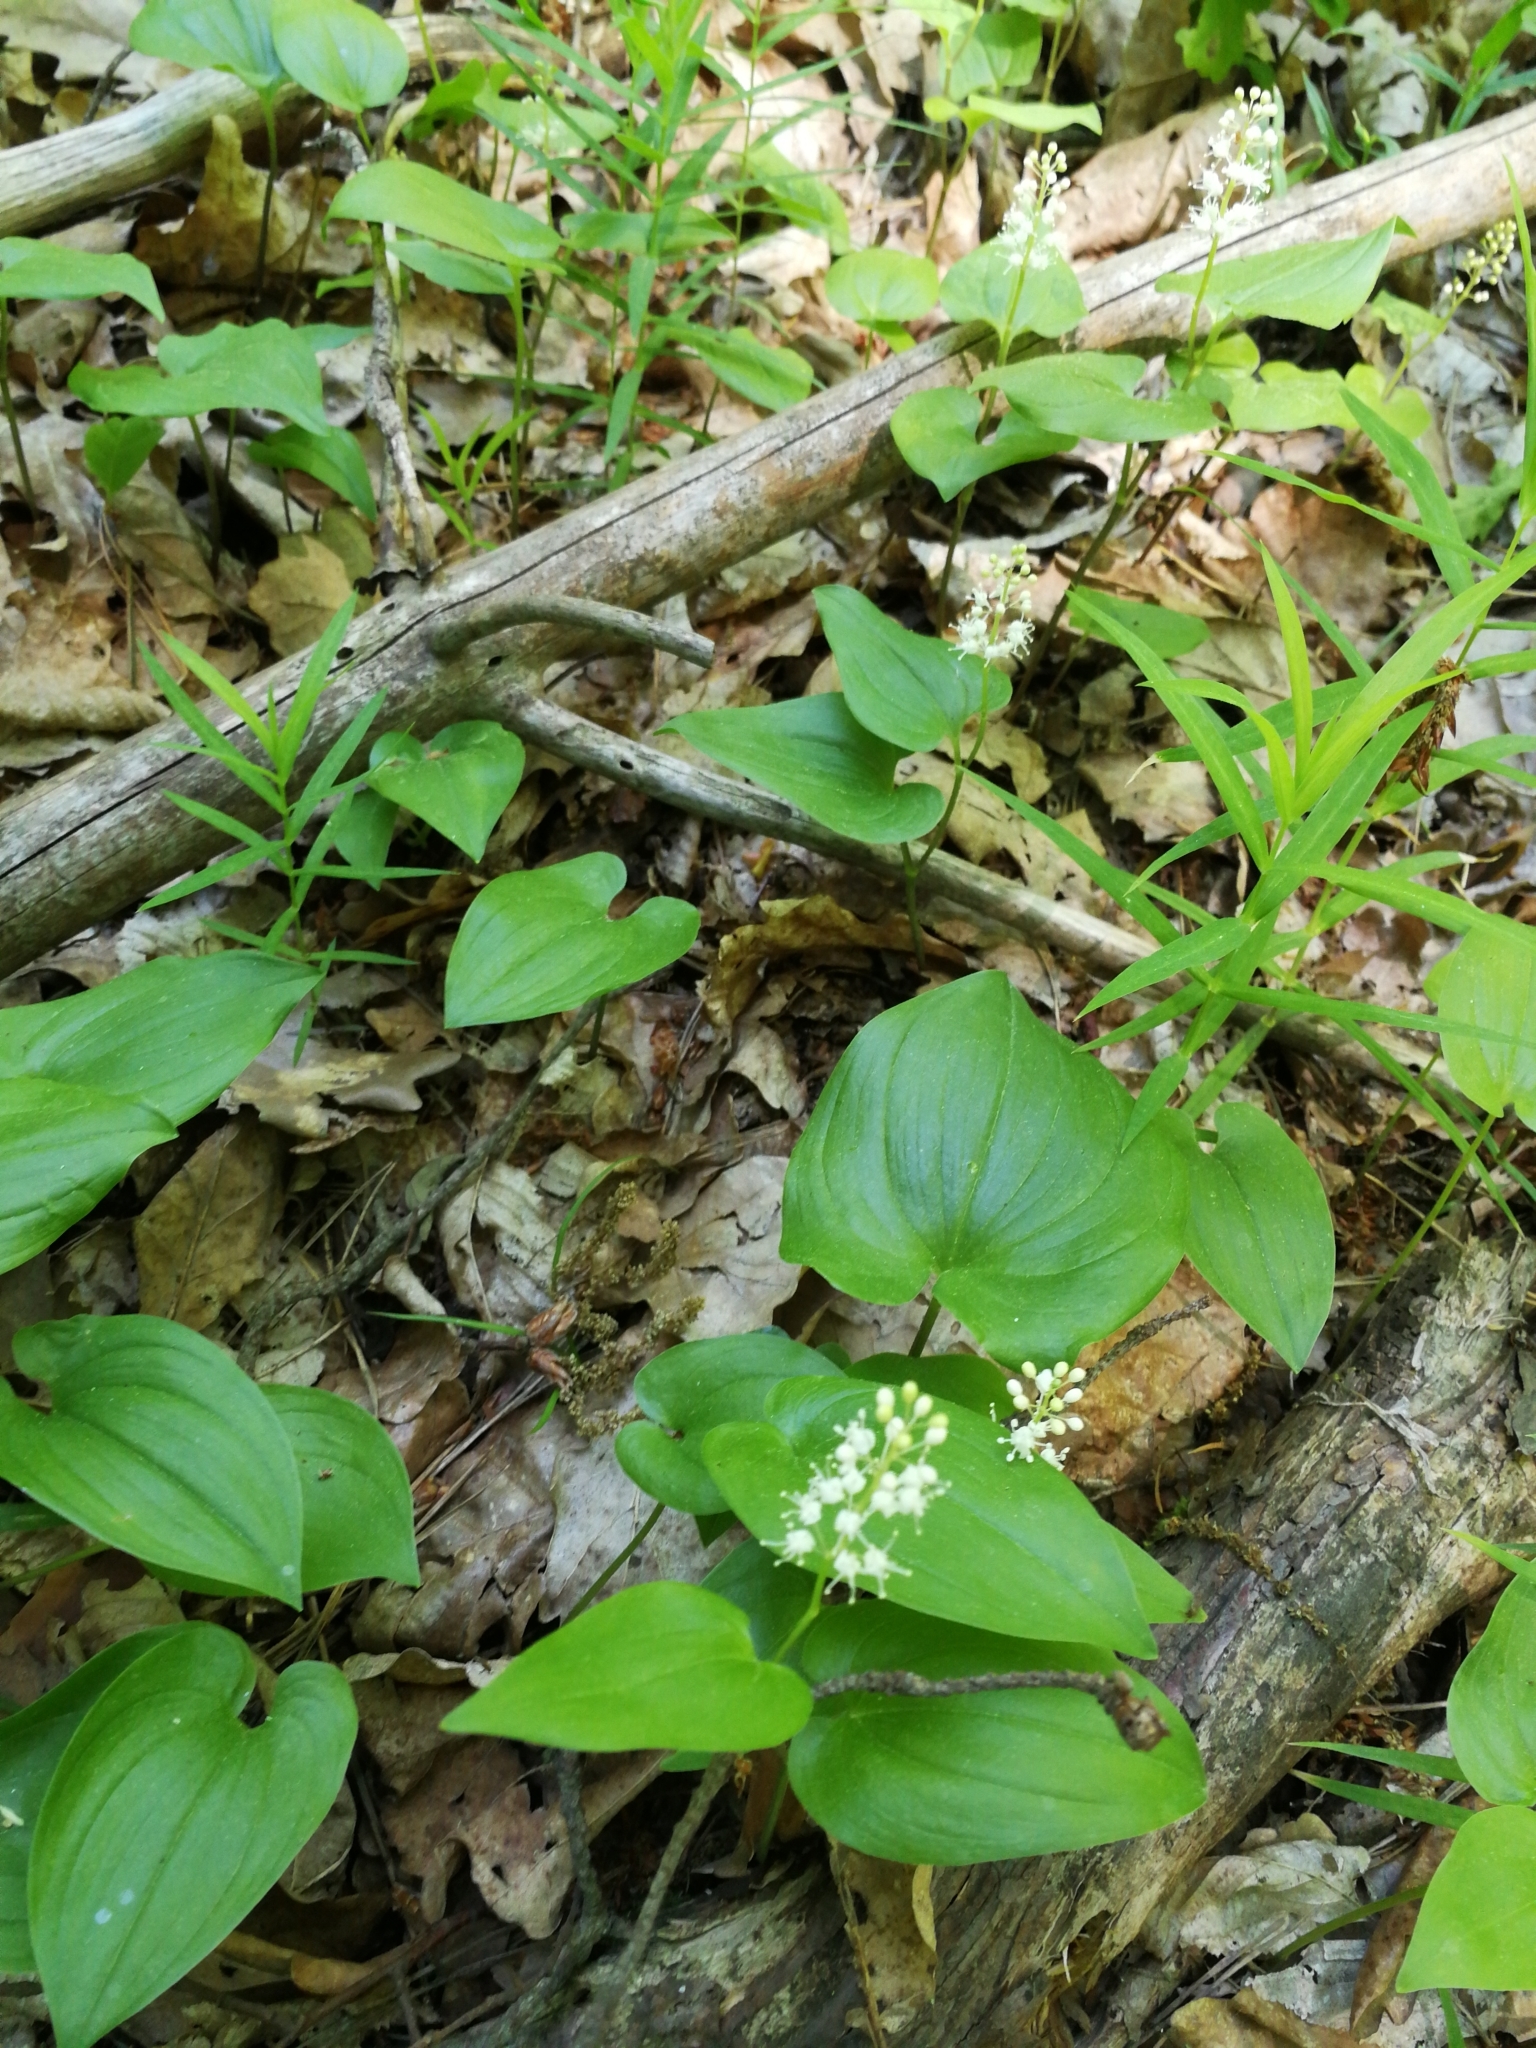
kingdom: Plantae
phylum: Tracheophyta
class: Liliopsida
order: Asparagales
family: Asparagaceae
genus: Maianthemum
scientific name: Maianthemum bifolium
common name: May lily
